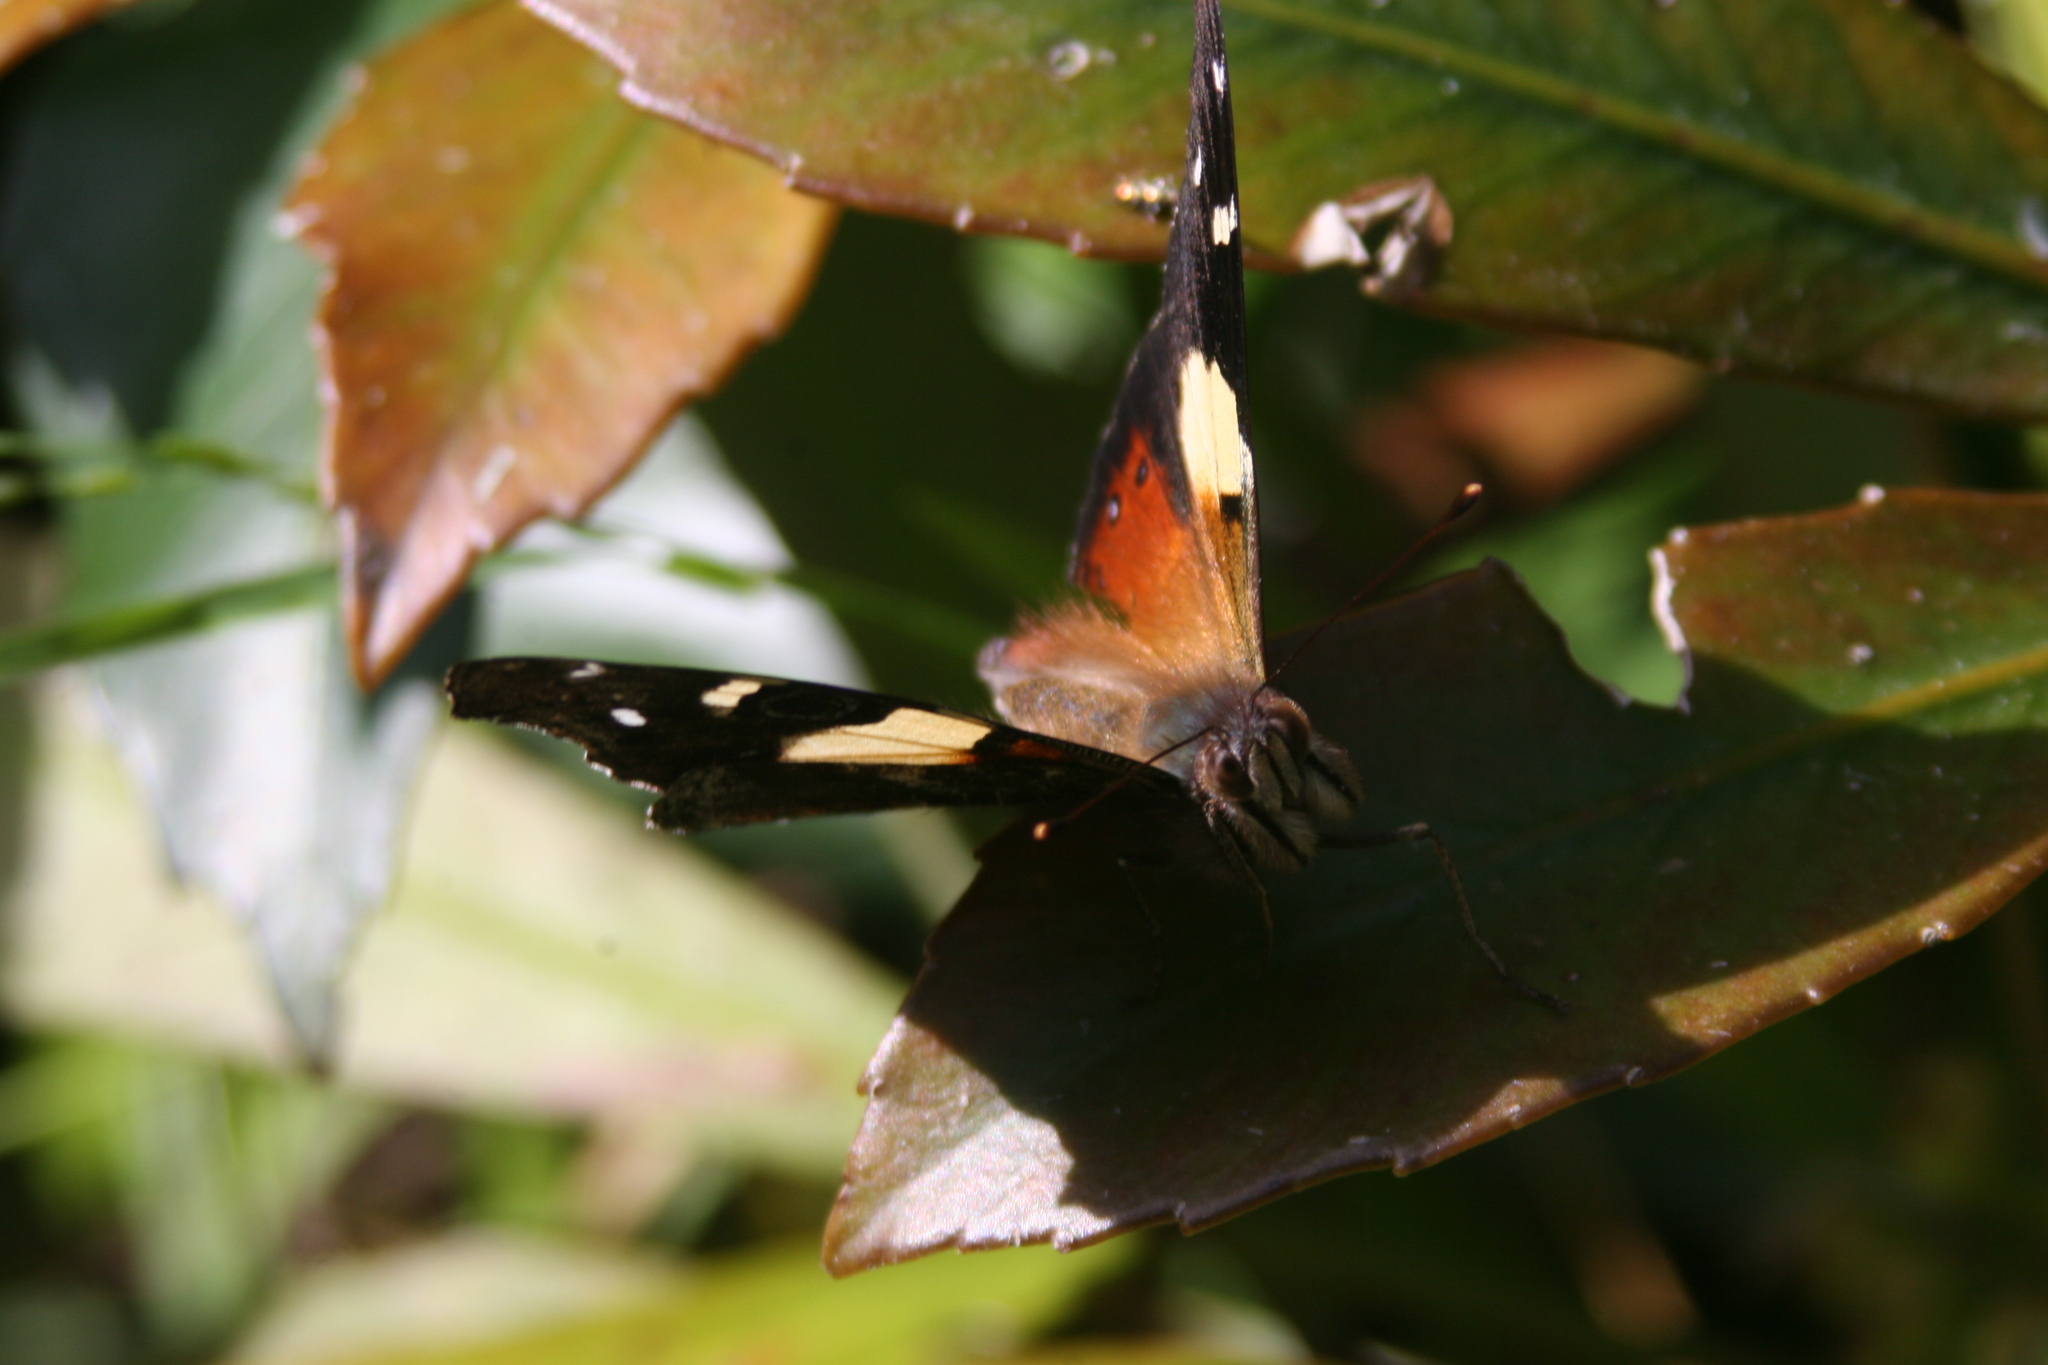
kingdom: Animalia
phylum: Arthropoda
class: Insecta
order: Lepidoptera
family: Nymphalidae
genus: Vanessa
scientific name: Vanessa itea
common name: Yellow admiral
